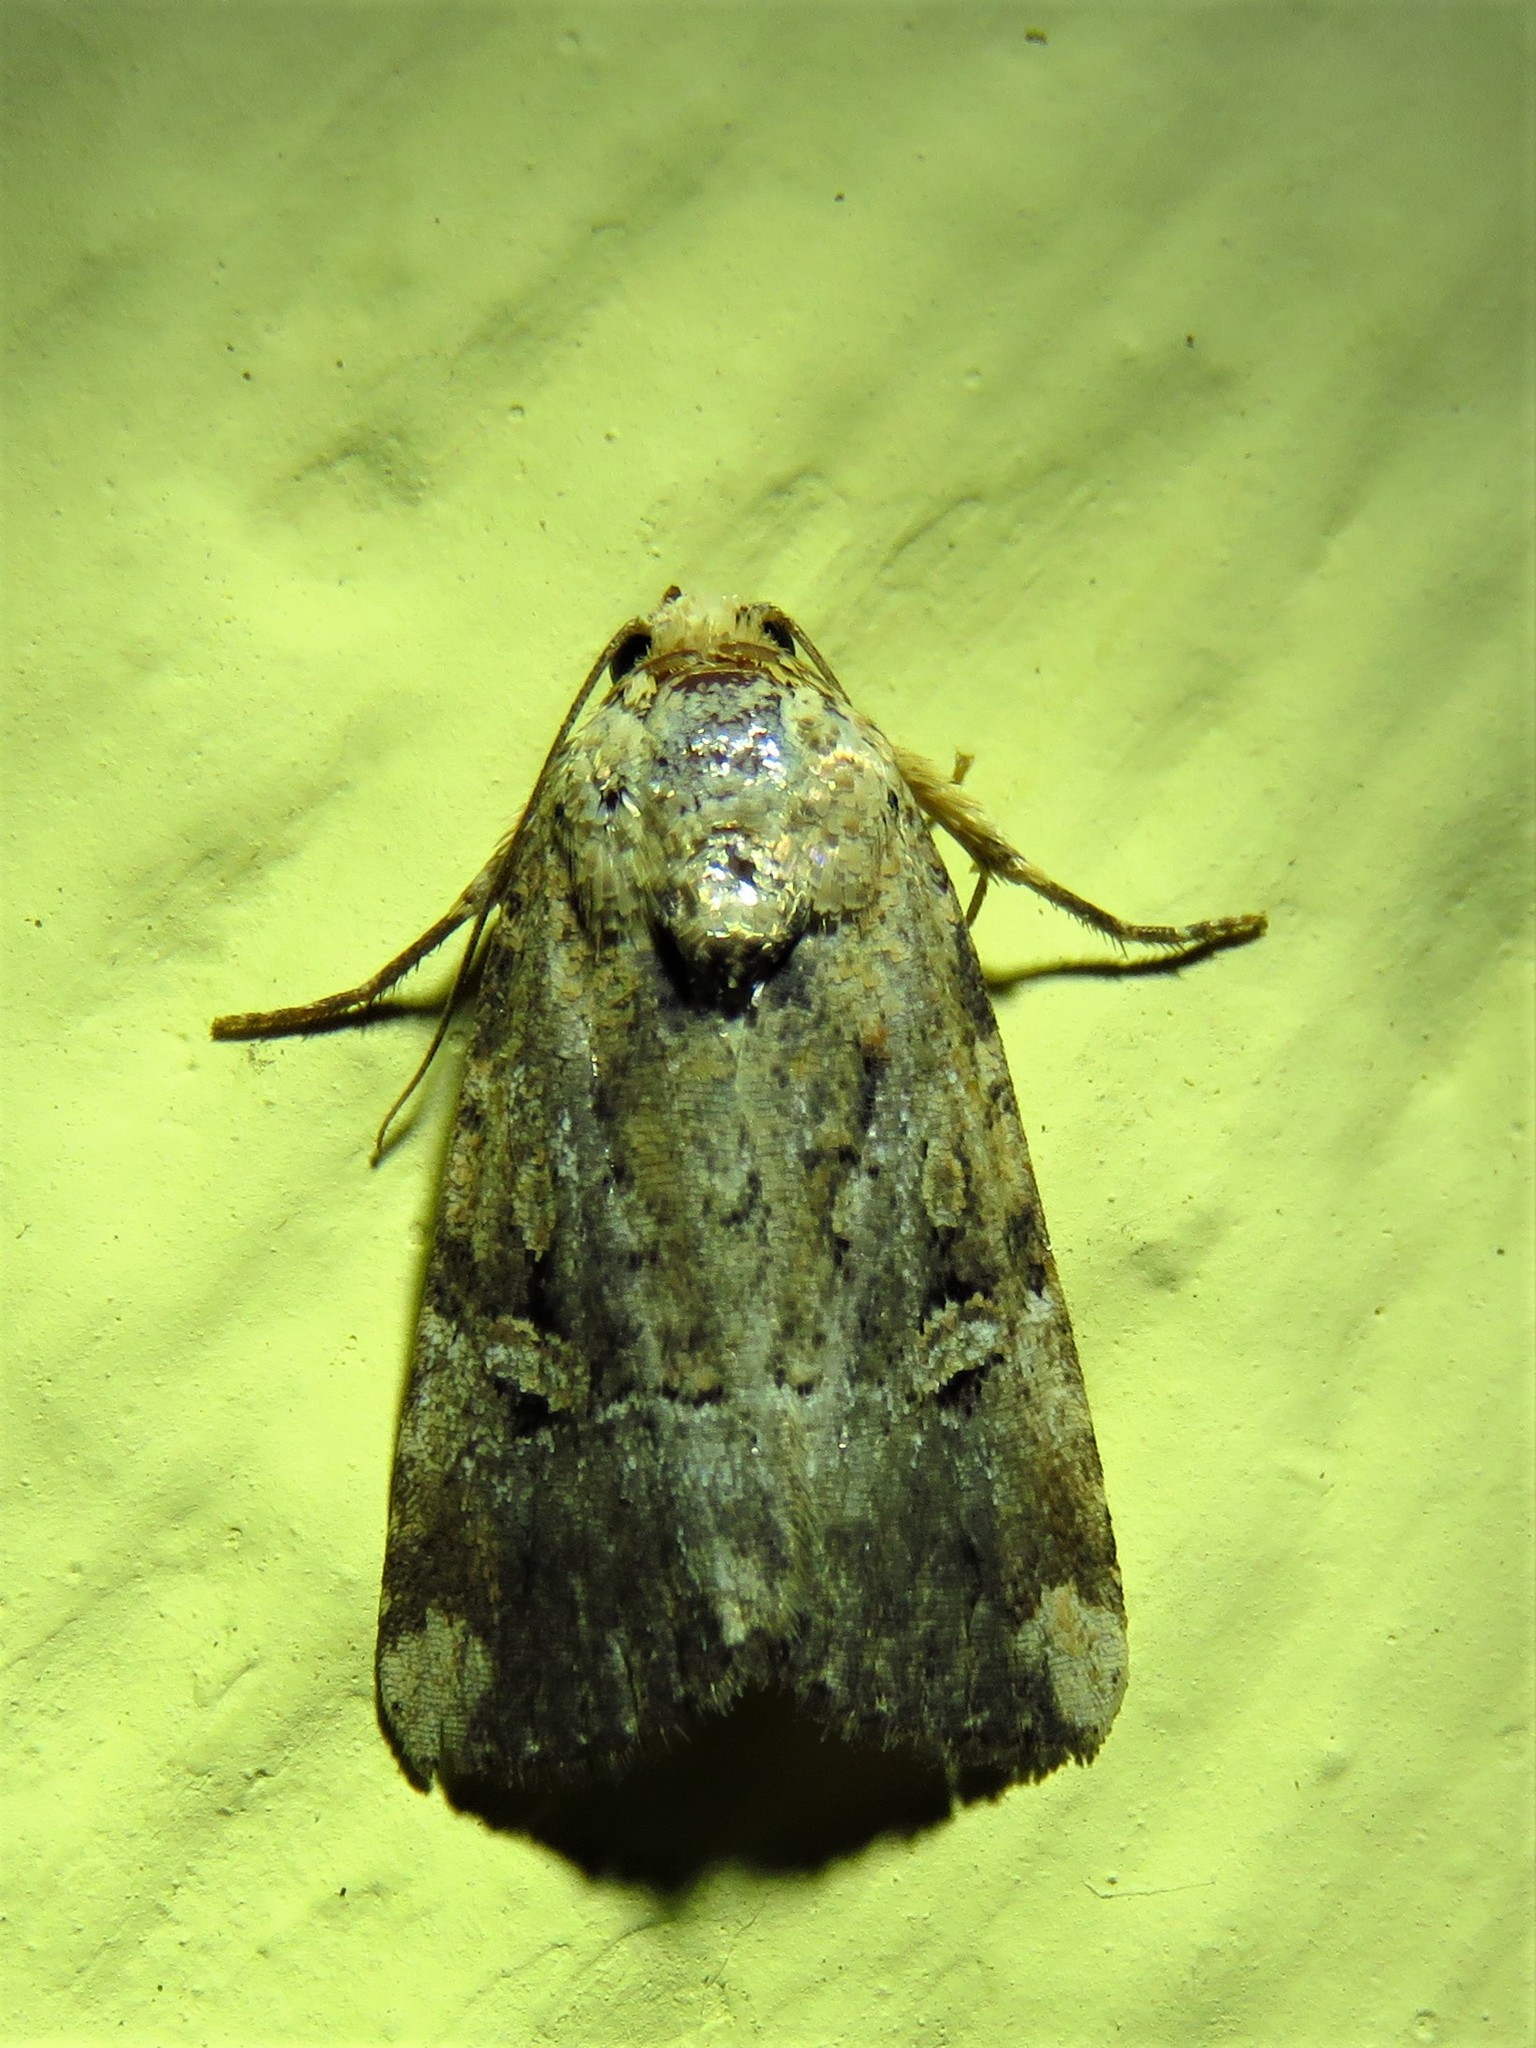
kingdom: Animalia
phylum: Arthropoda
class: Insecta
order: Lepidoptera
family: Noctuidae
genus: Elaphria
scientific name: Elaphria chalcedonia
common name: Chalcedony midget
